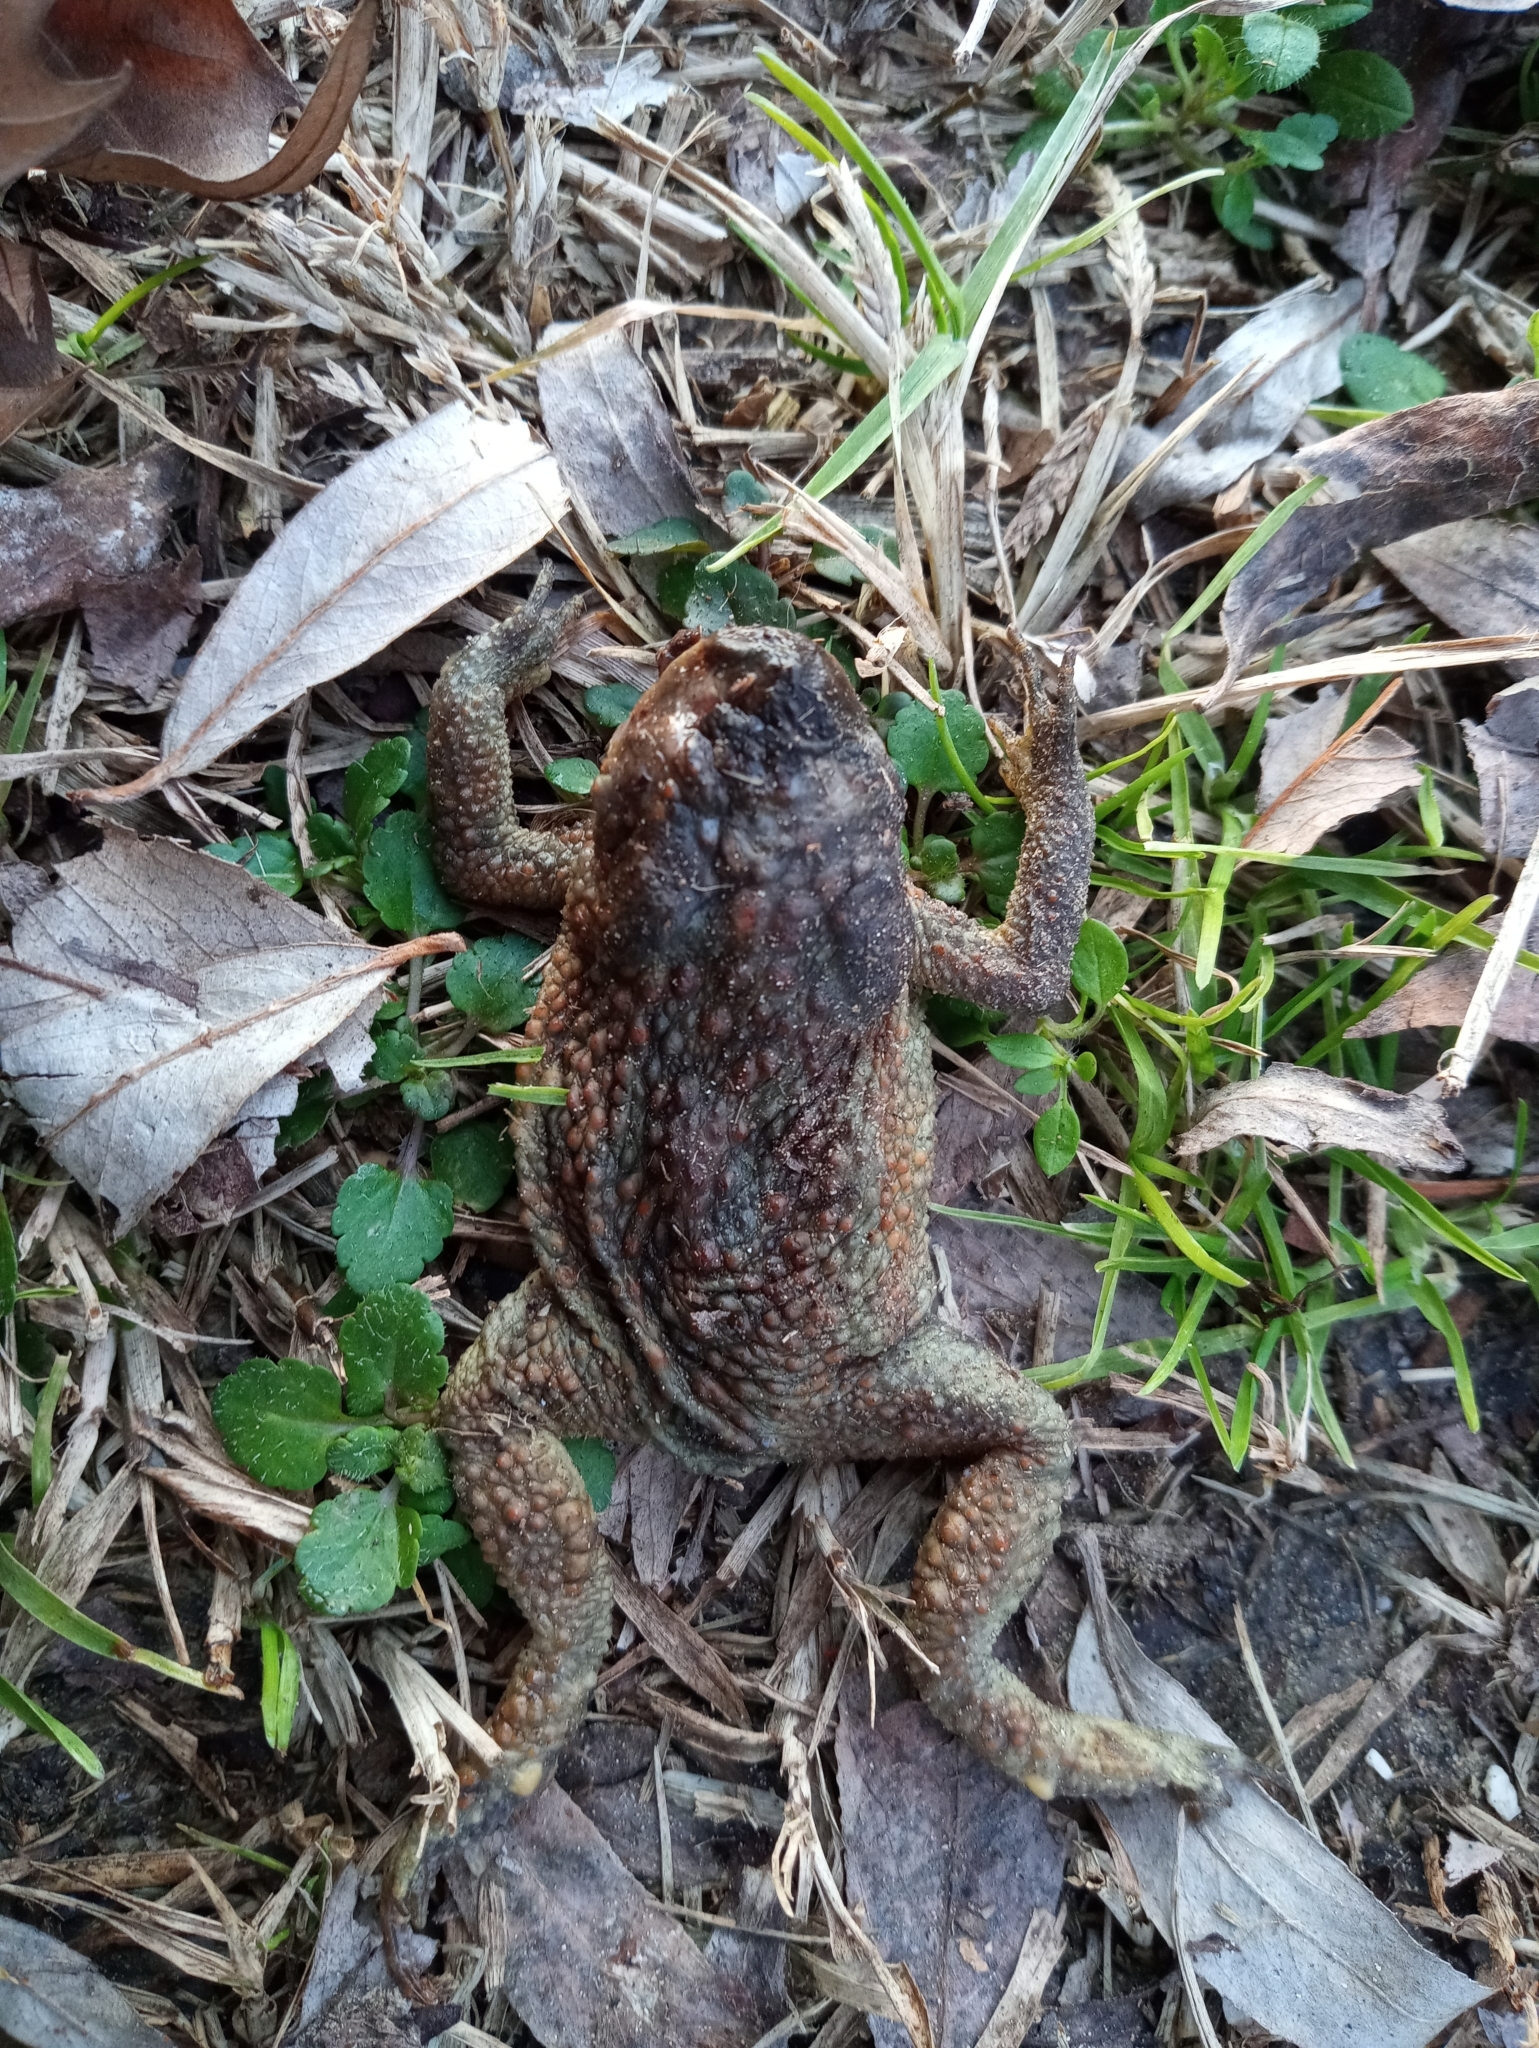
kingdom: Animalia
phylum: Chordata
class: Amphibia
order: Anura
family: Bufonidae
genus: Bufo
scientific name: Bufo bufo
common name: Common toad
